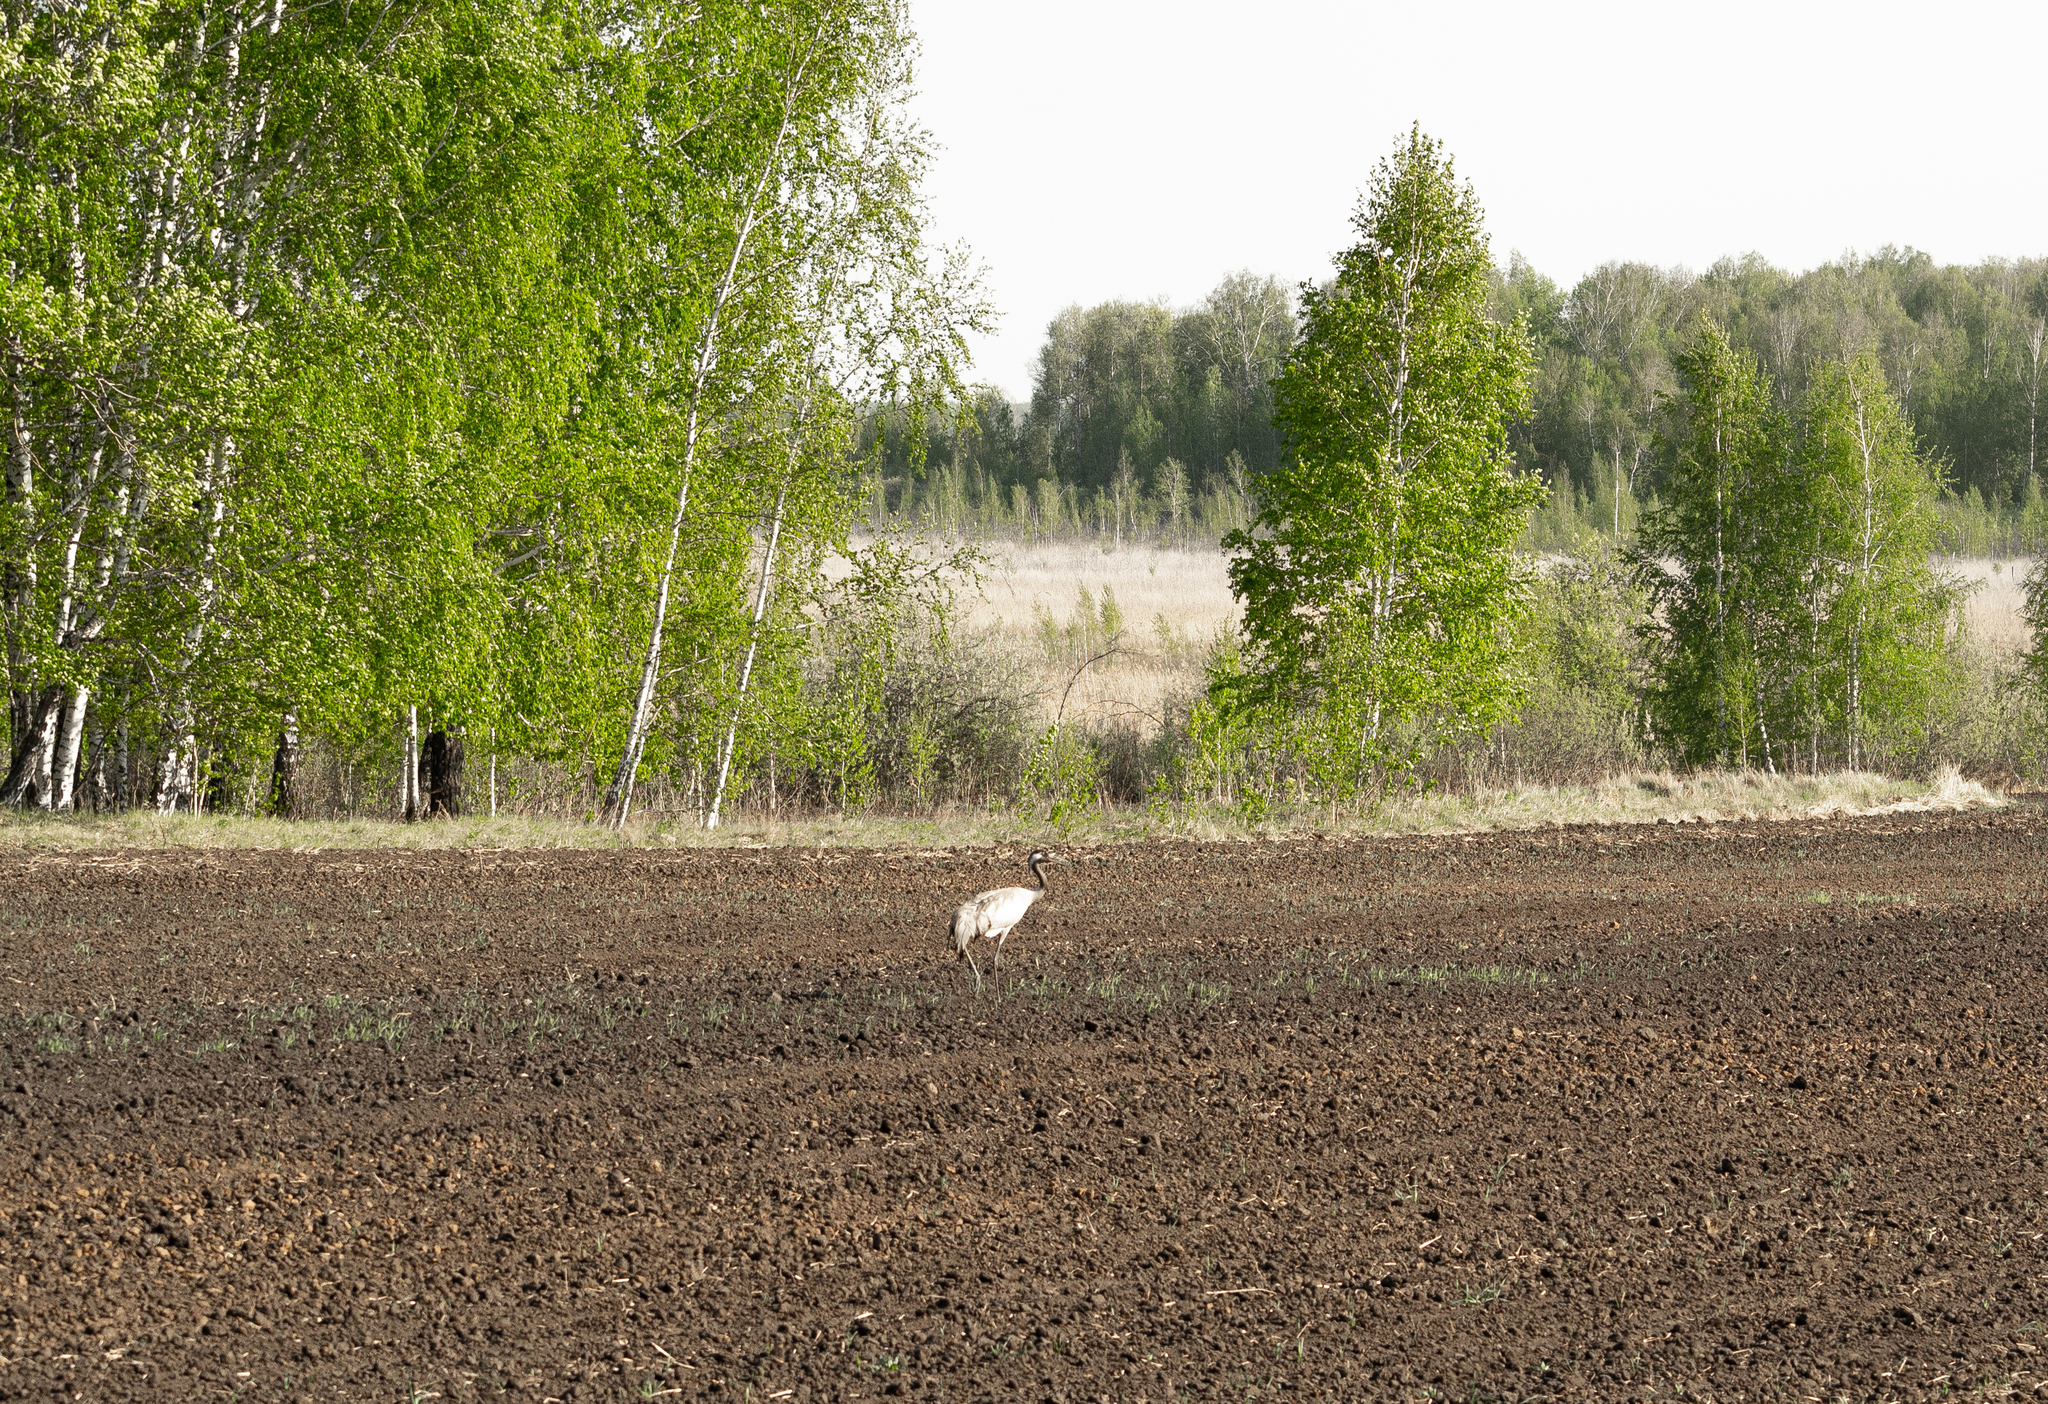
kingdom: Animalia
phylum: Chordata
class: Aves
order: Gruiformes
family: Gruidae
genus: Grus
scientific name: Grus grus
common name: Common crane
